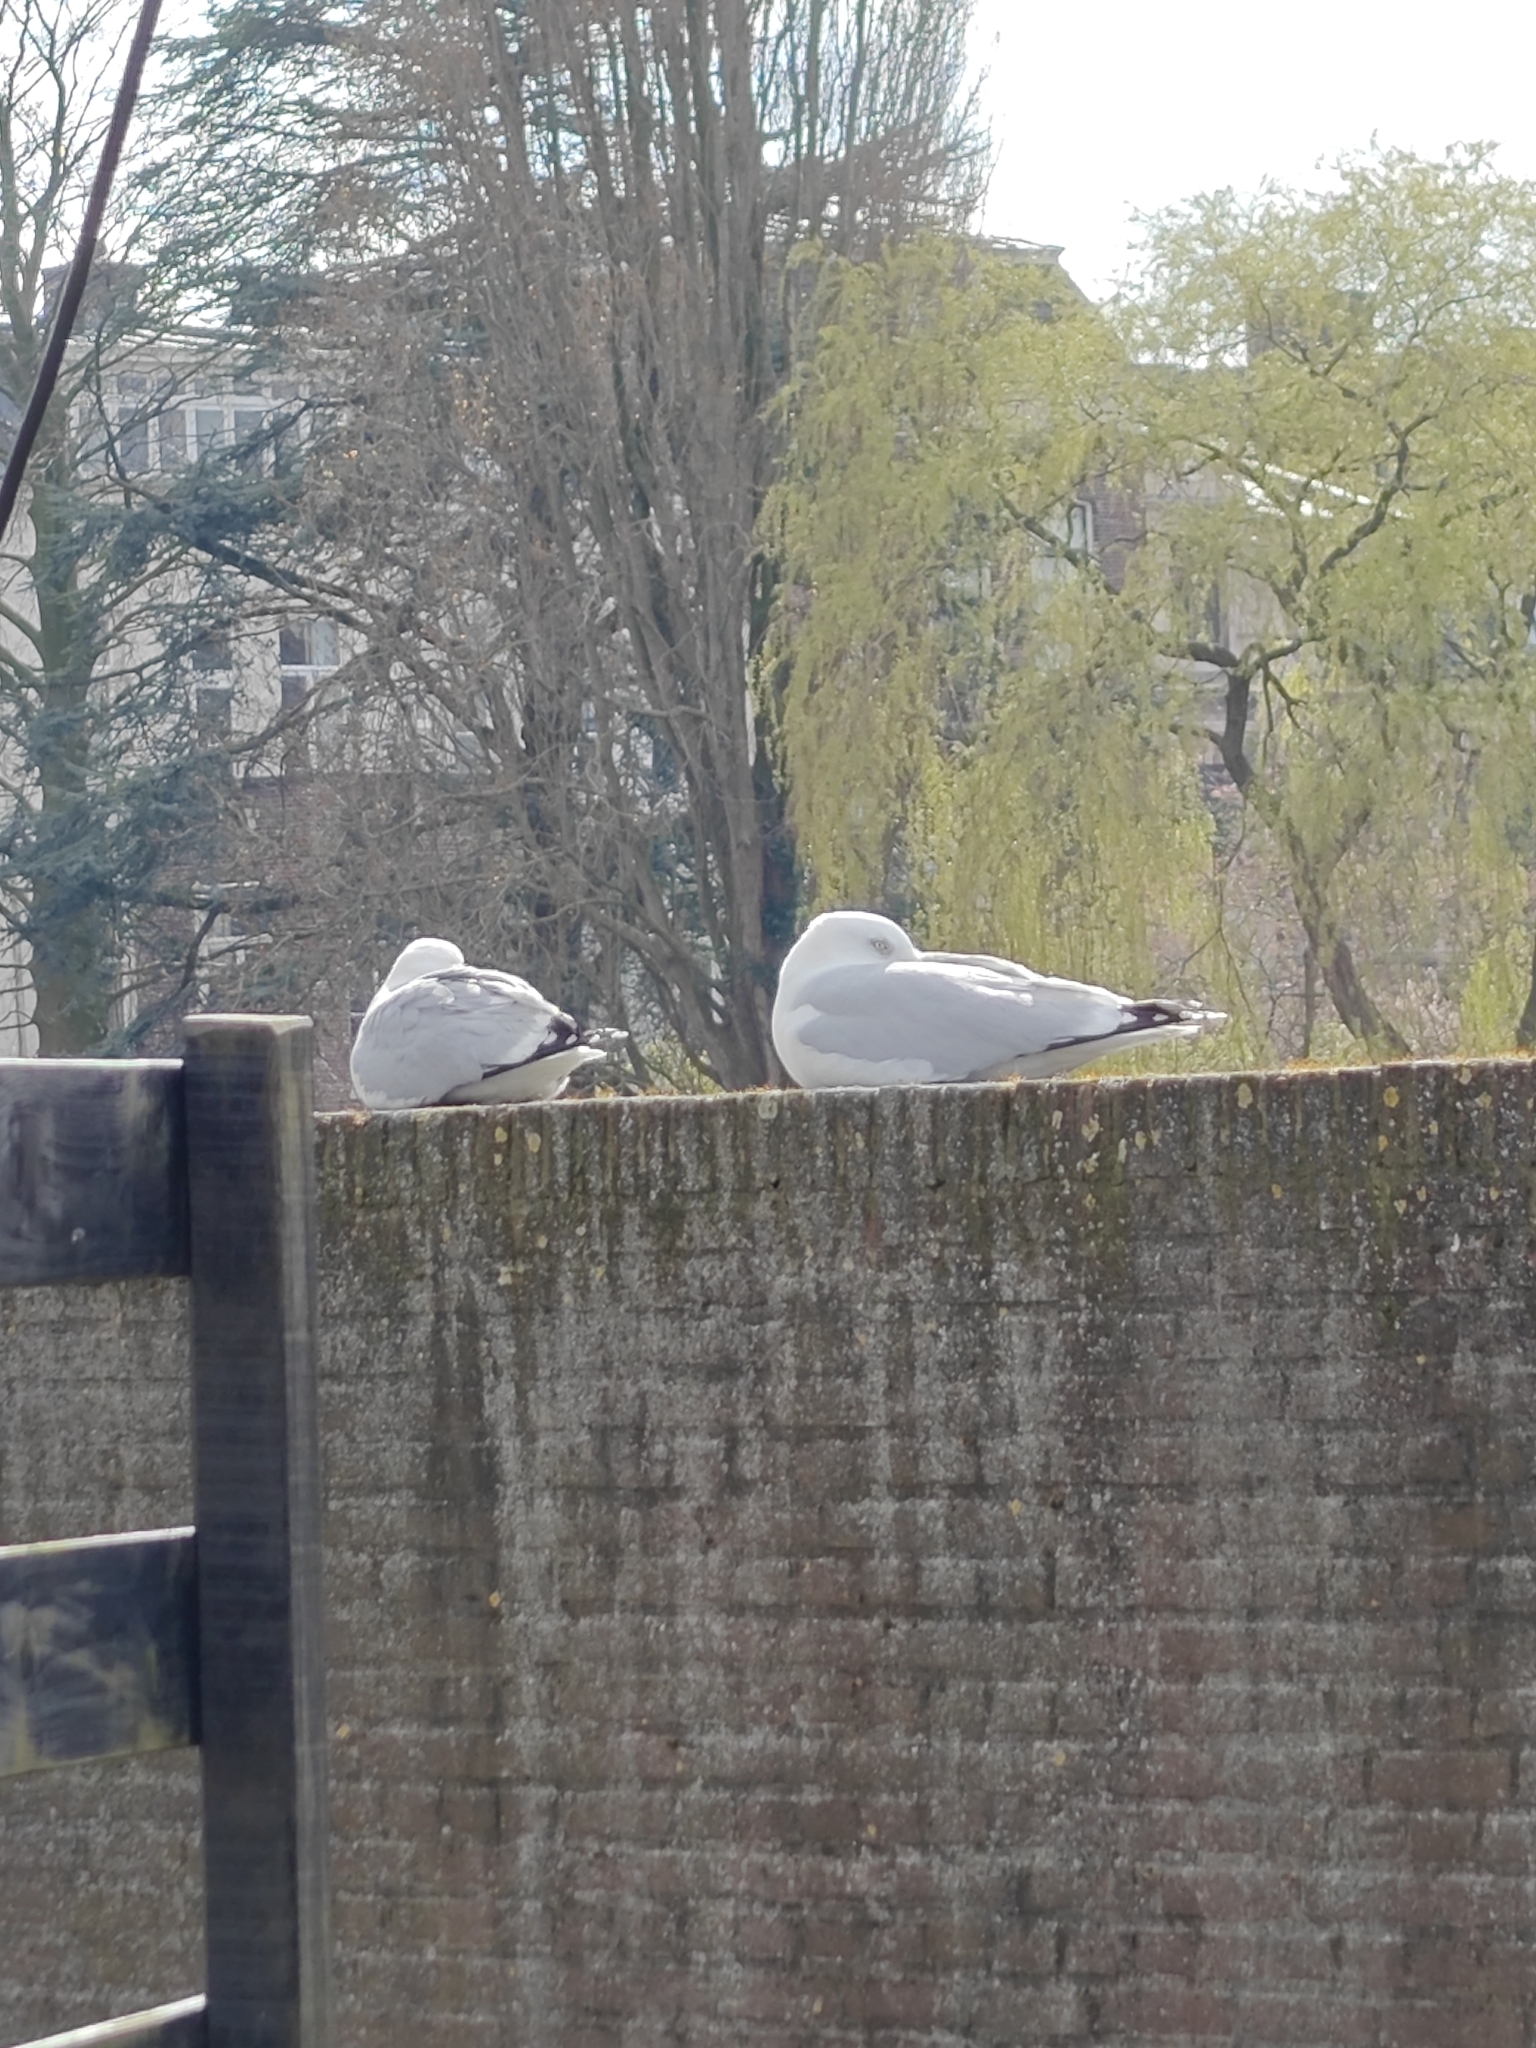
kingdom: Animalia
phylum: Chordata
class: Aves
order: Charadriiformes
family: Laridae
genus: Larus
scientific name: Larus argentatus
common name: Herring gull
